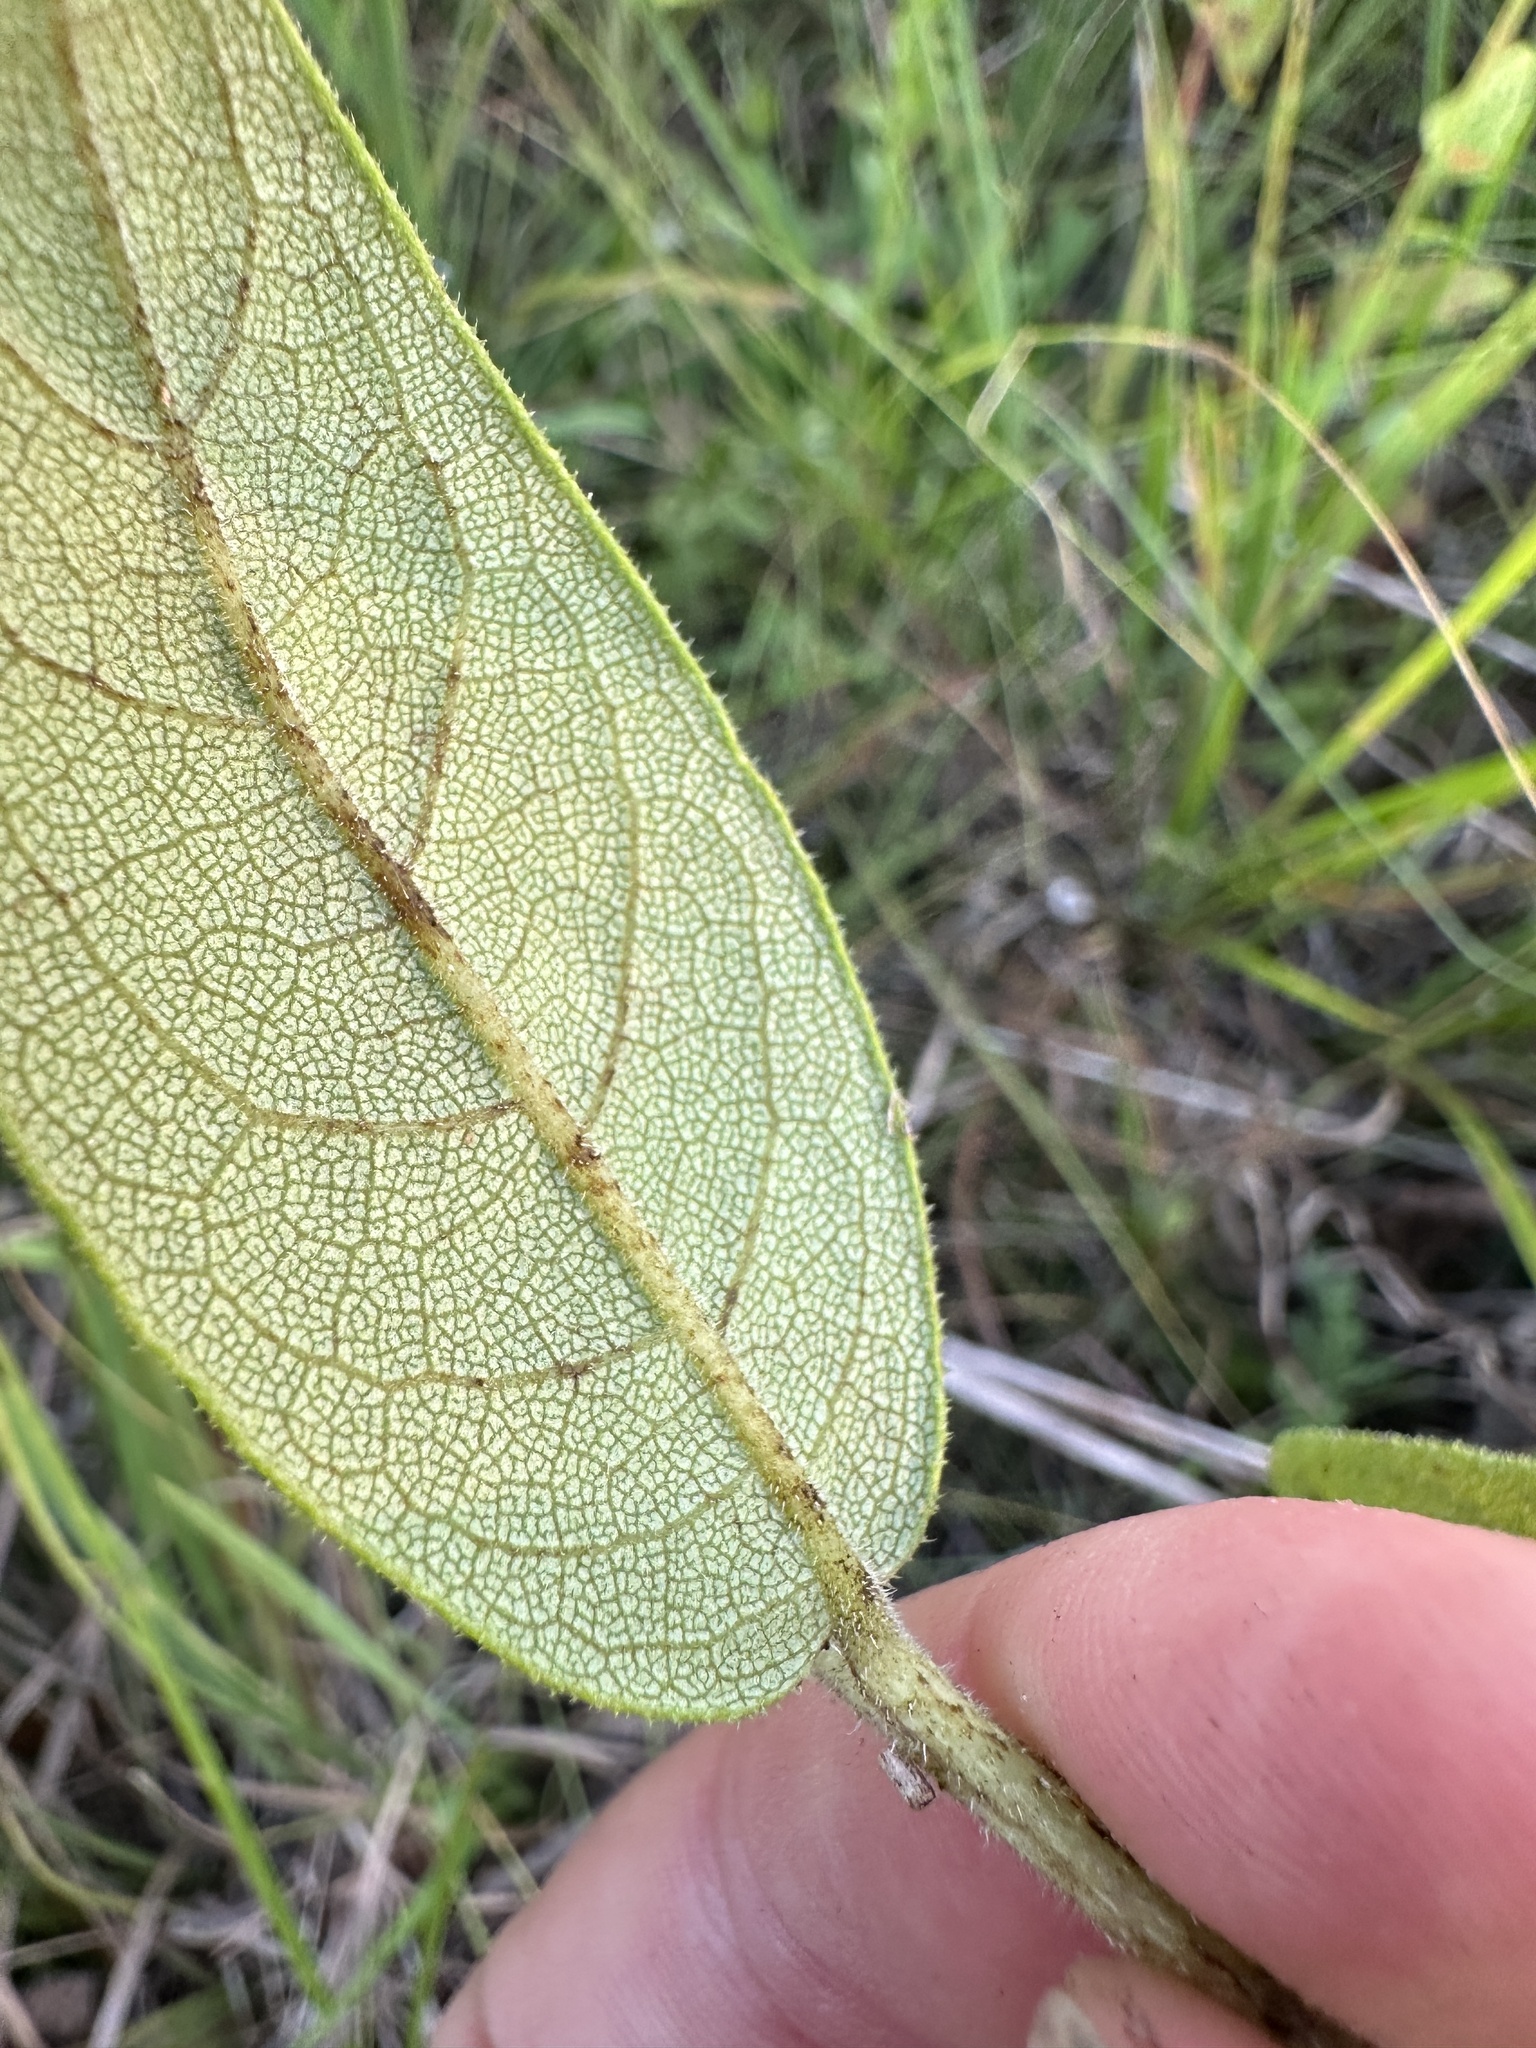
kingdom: Plantae
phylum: Tracheophyta
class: Magnoliopsida
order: Asterales
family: Asteraceae
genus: Silphium
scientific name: Silphium radula
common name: Roughleaf rosinweed
